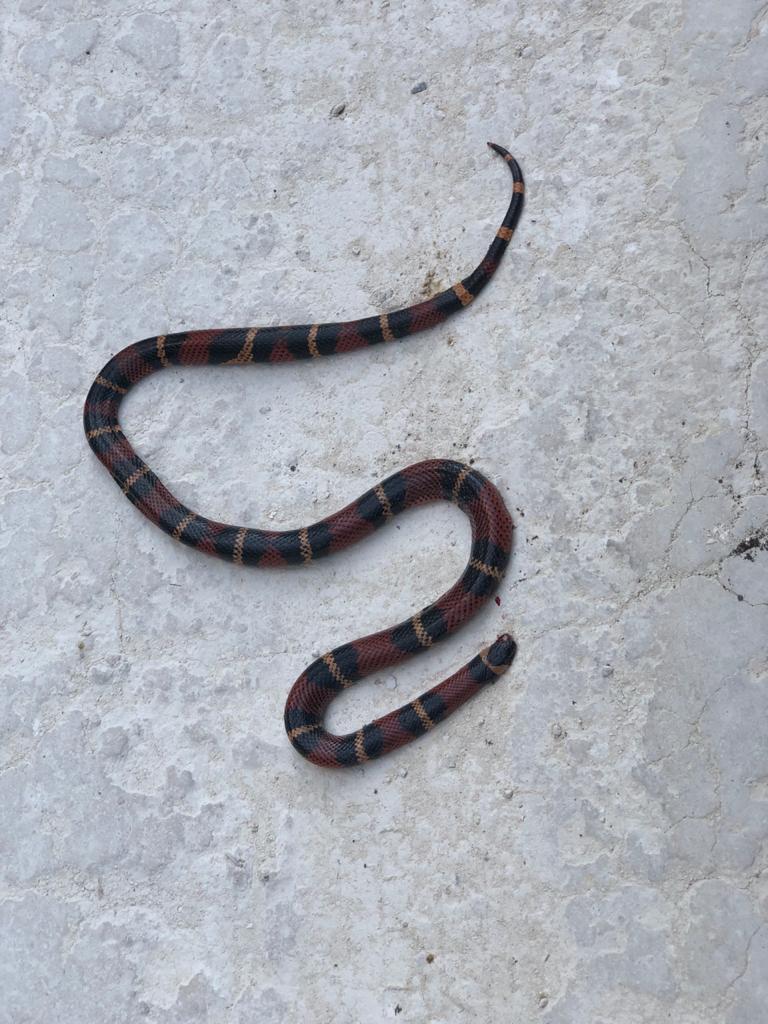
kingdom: Animalia
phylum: Chordata
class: Squamata
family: Colubridae
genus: Lampropeltis
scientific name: Lampropeltis abnorma
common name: Honduran milk snake
